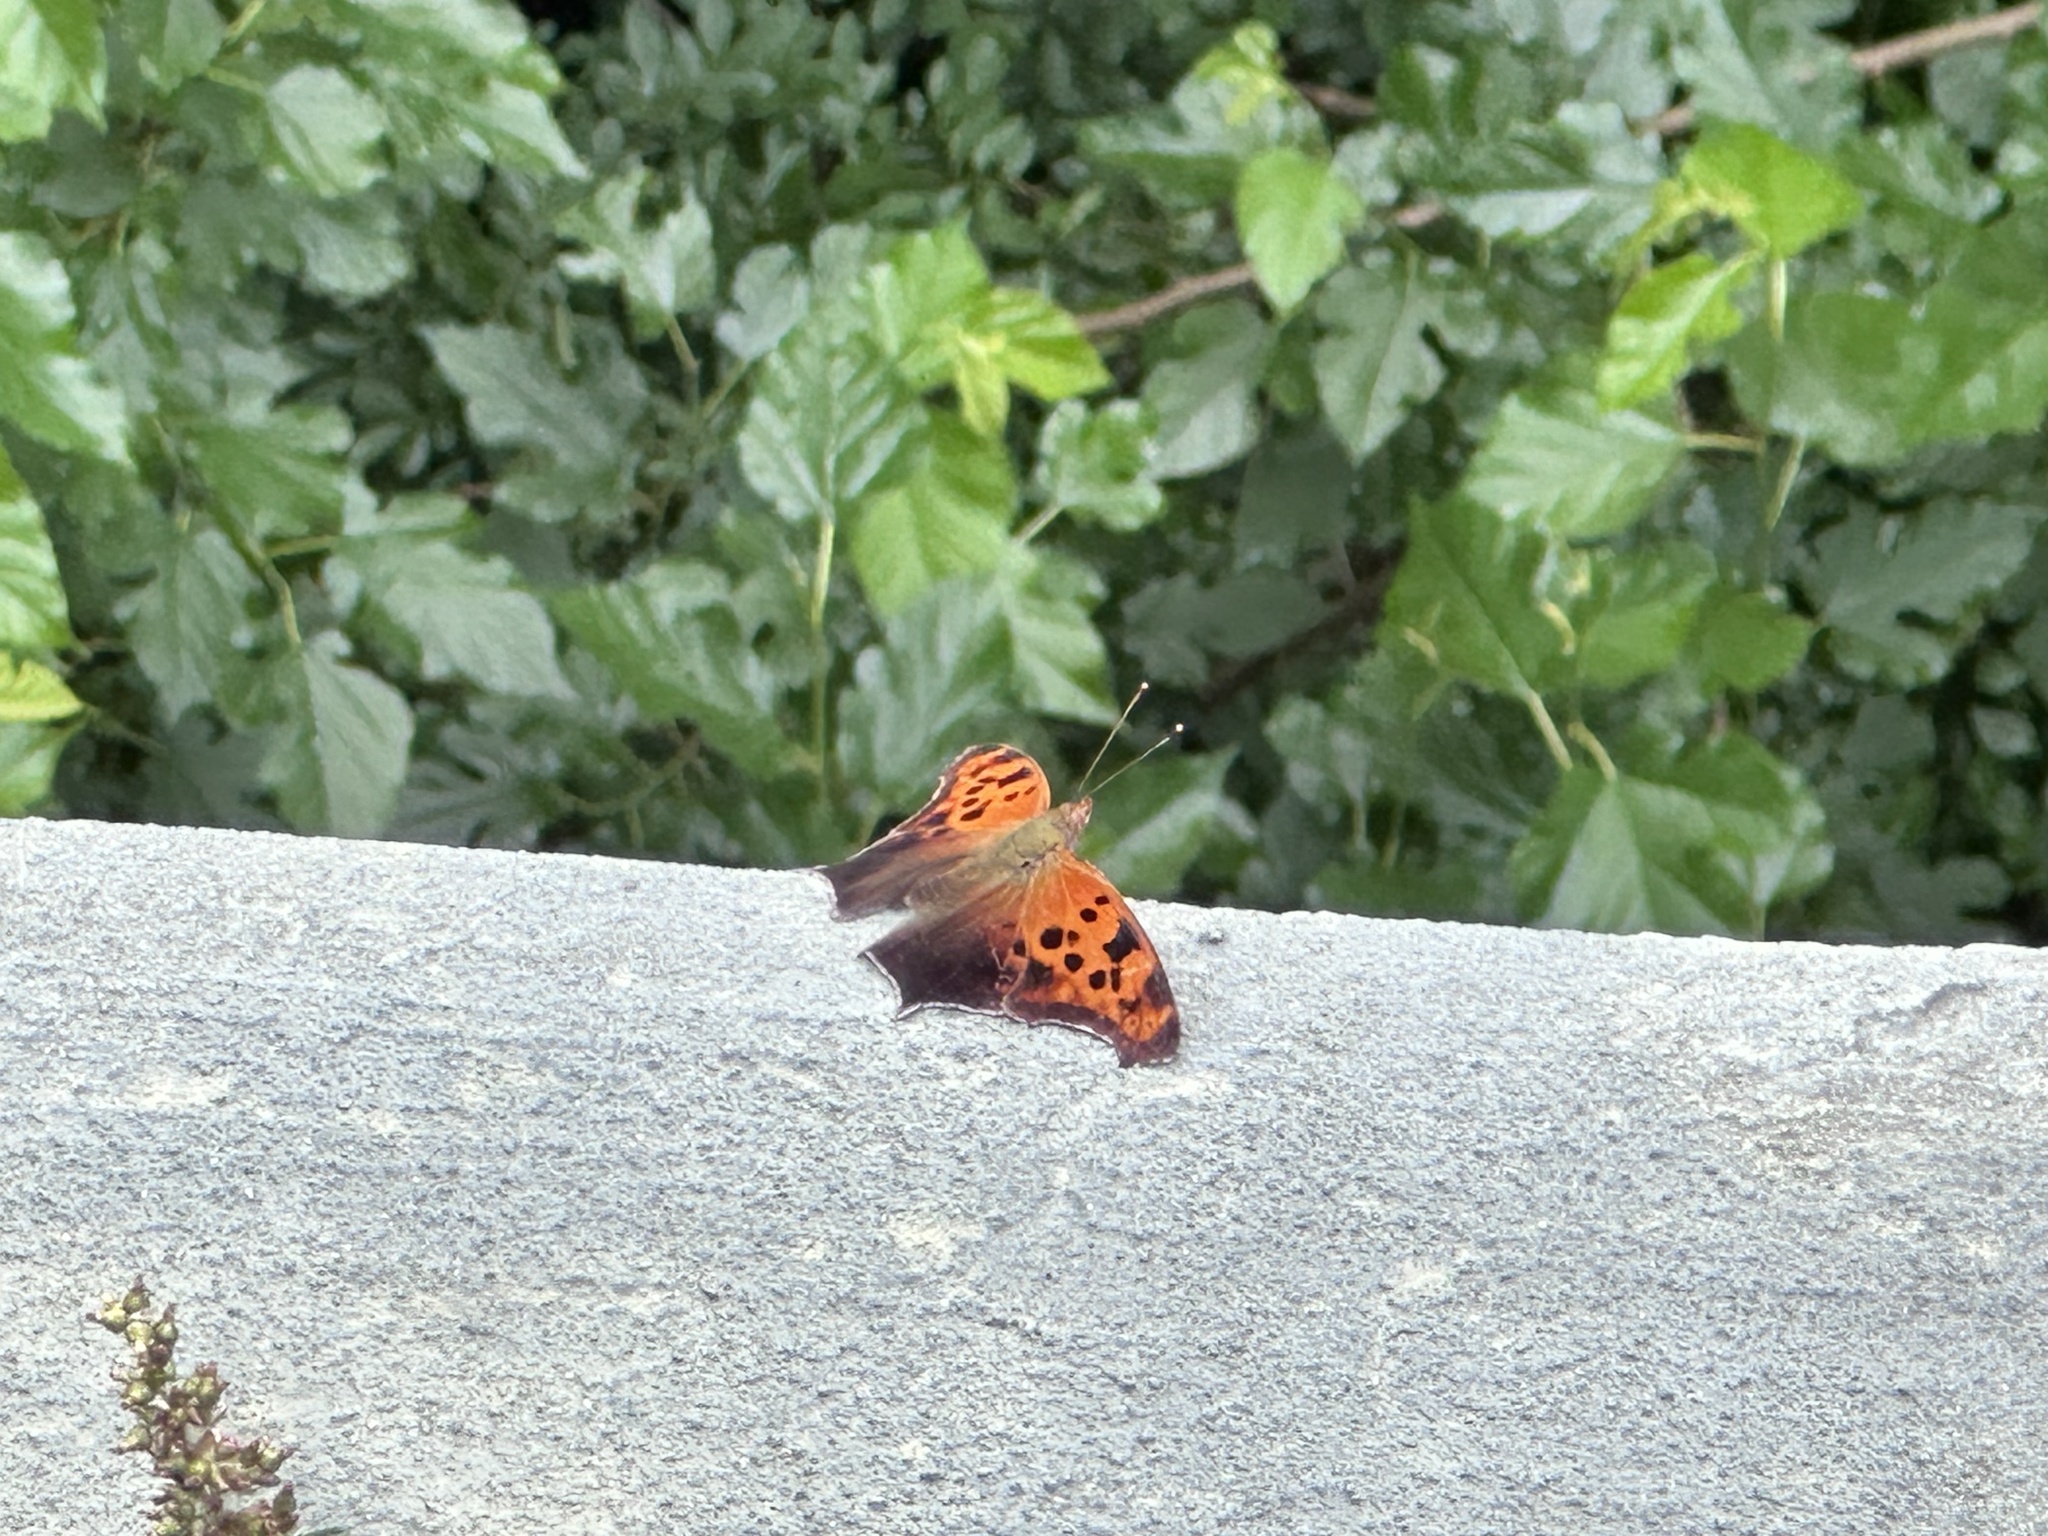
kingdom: Animalia
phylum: Arthropoda
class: Insecta
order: Lepidoptera
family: Nymphalidae
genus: Polygonia
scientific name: Polygonia interrogationis
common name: Question mark
